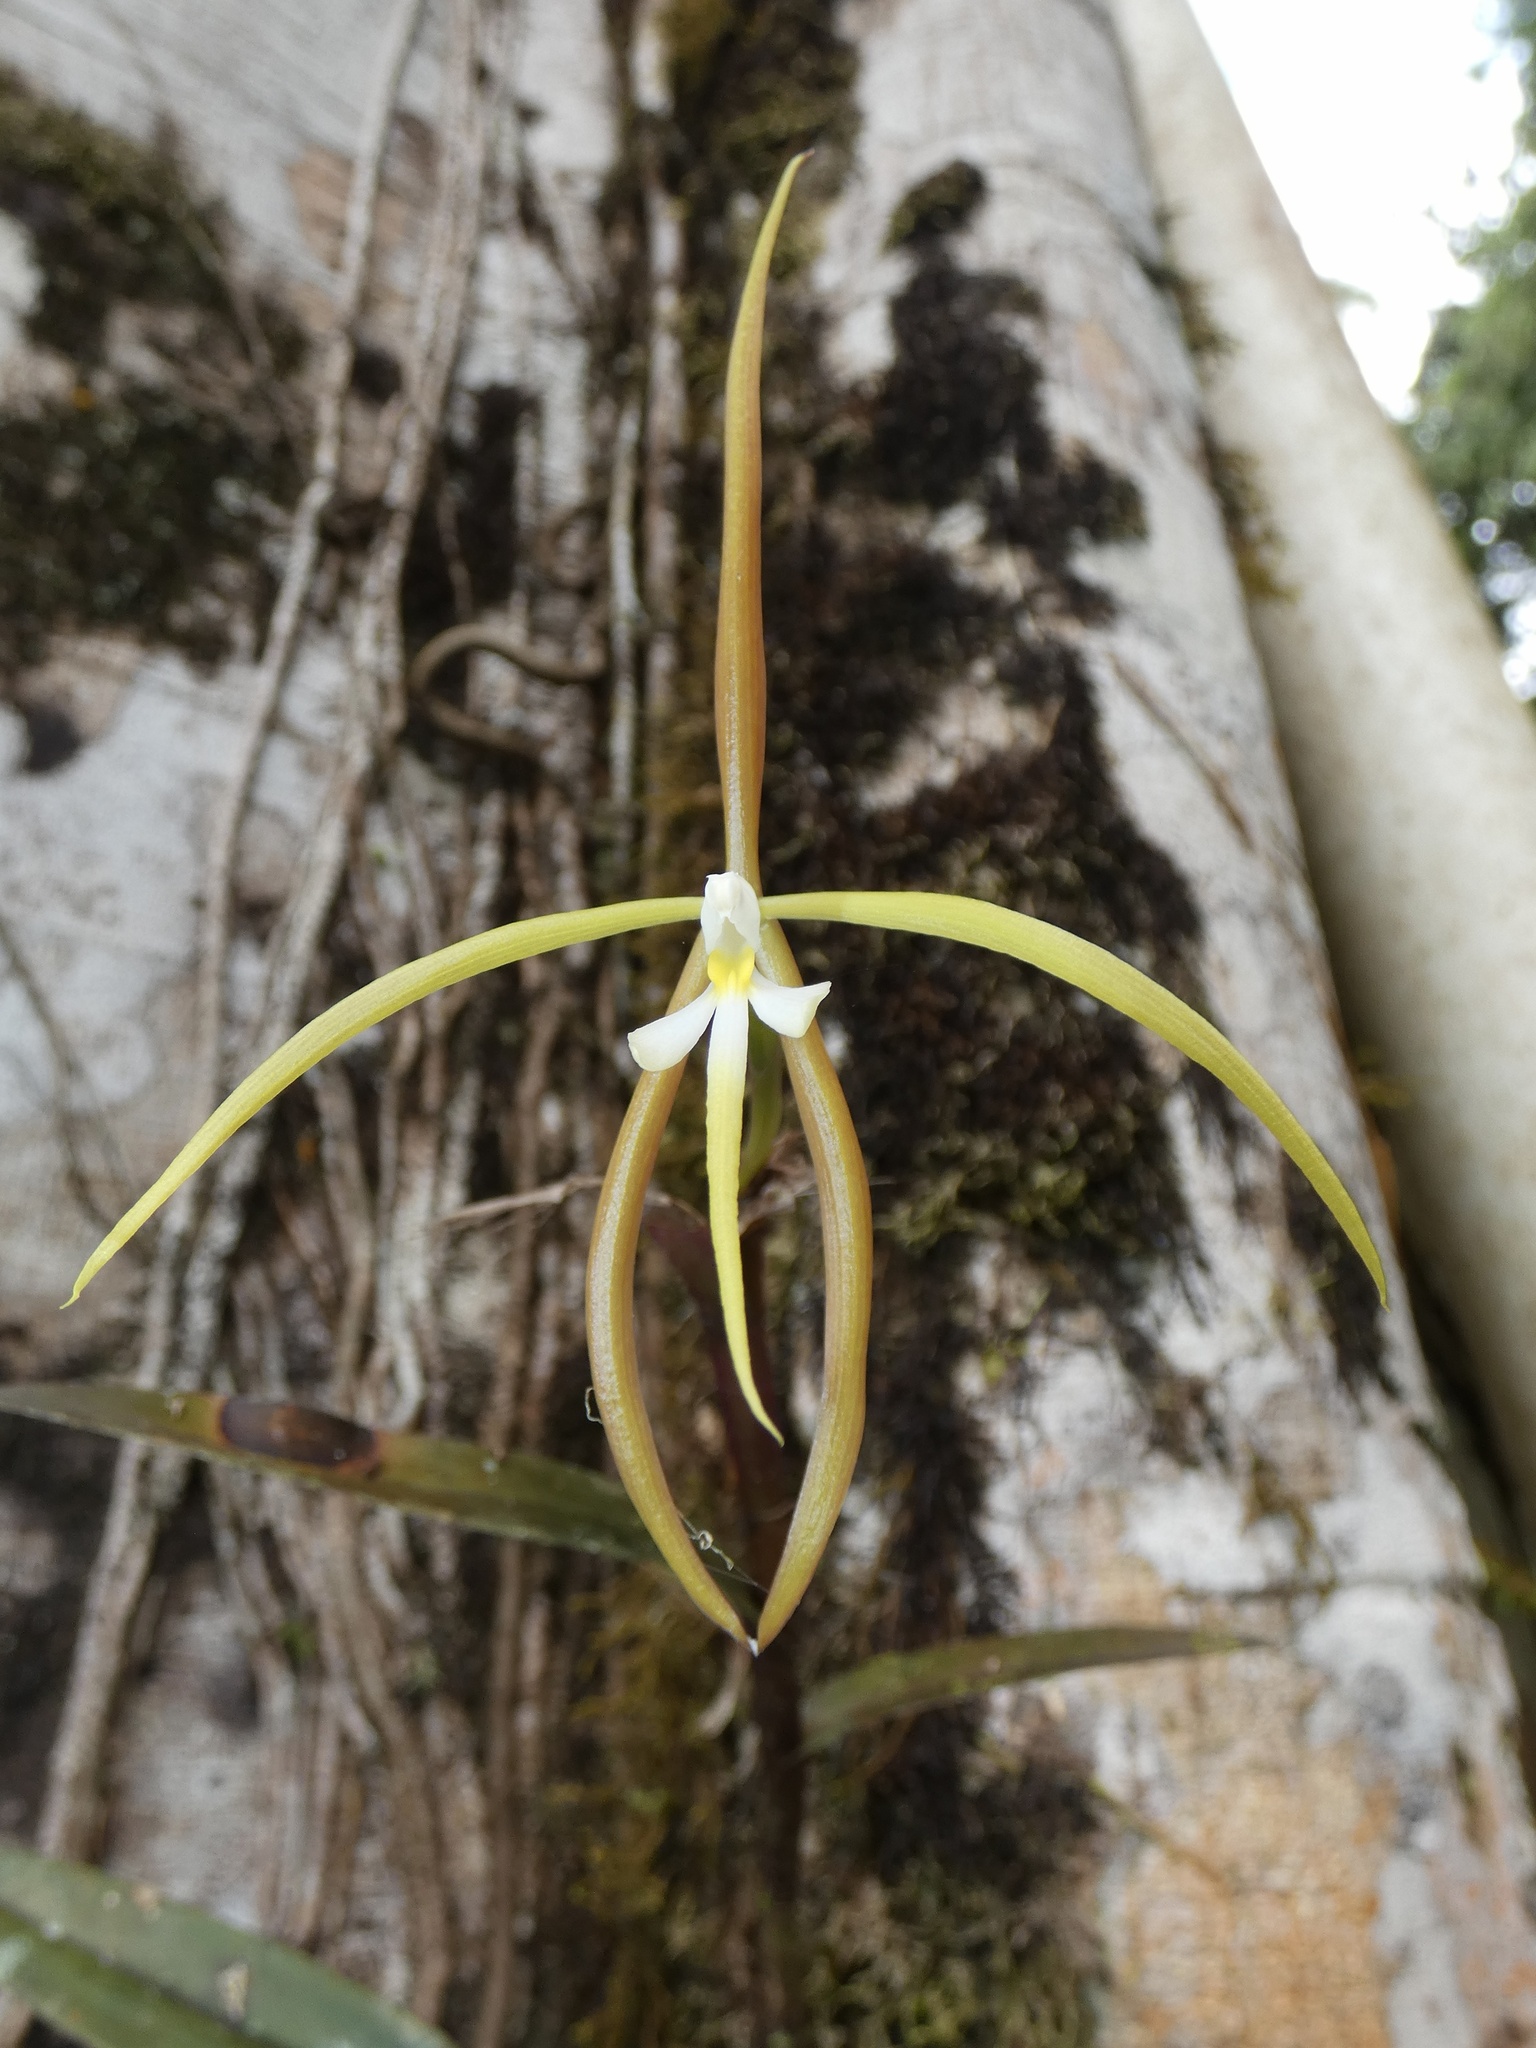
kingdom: Plantae
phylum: Tracheophyta
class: Liliopsida
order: Asparagales
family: Orchidaceae
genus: Epidendrum
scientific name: Epidendrum nocturnum
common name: Night scented orchid
